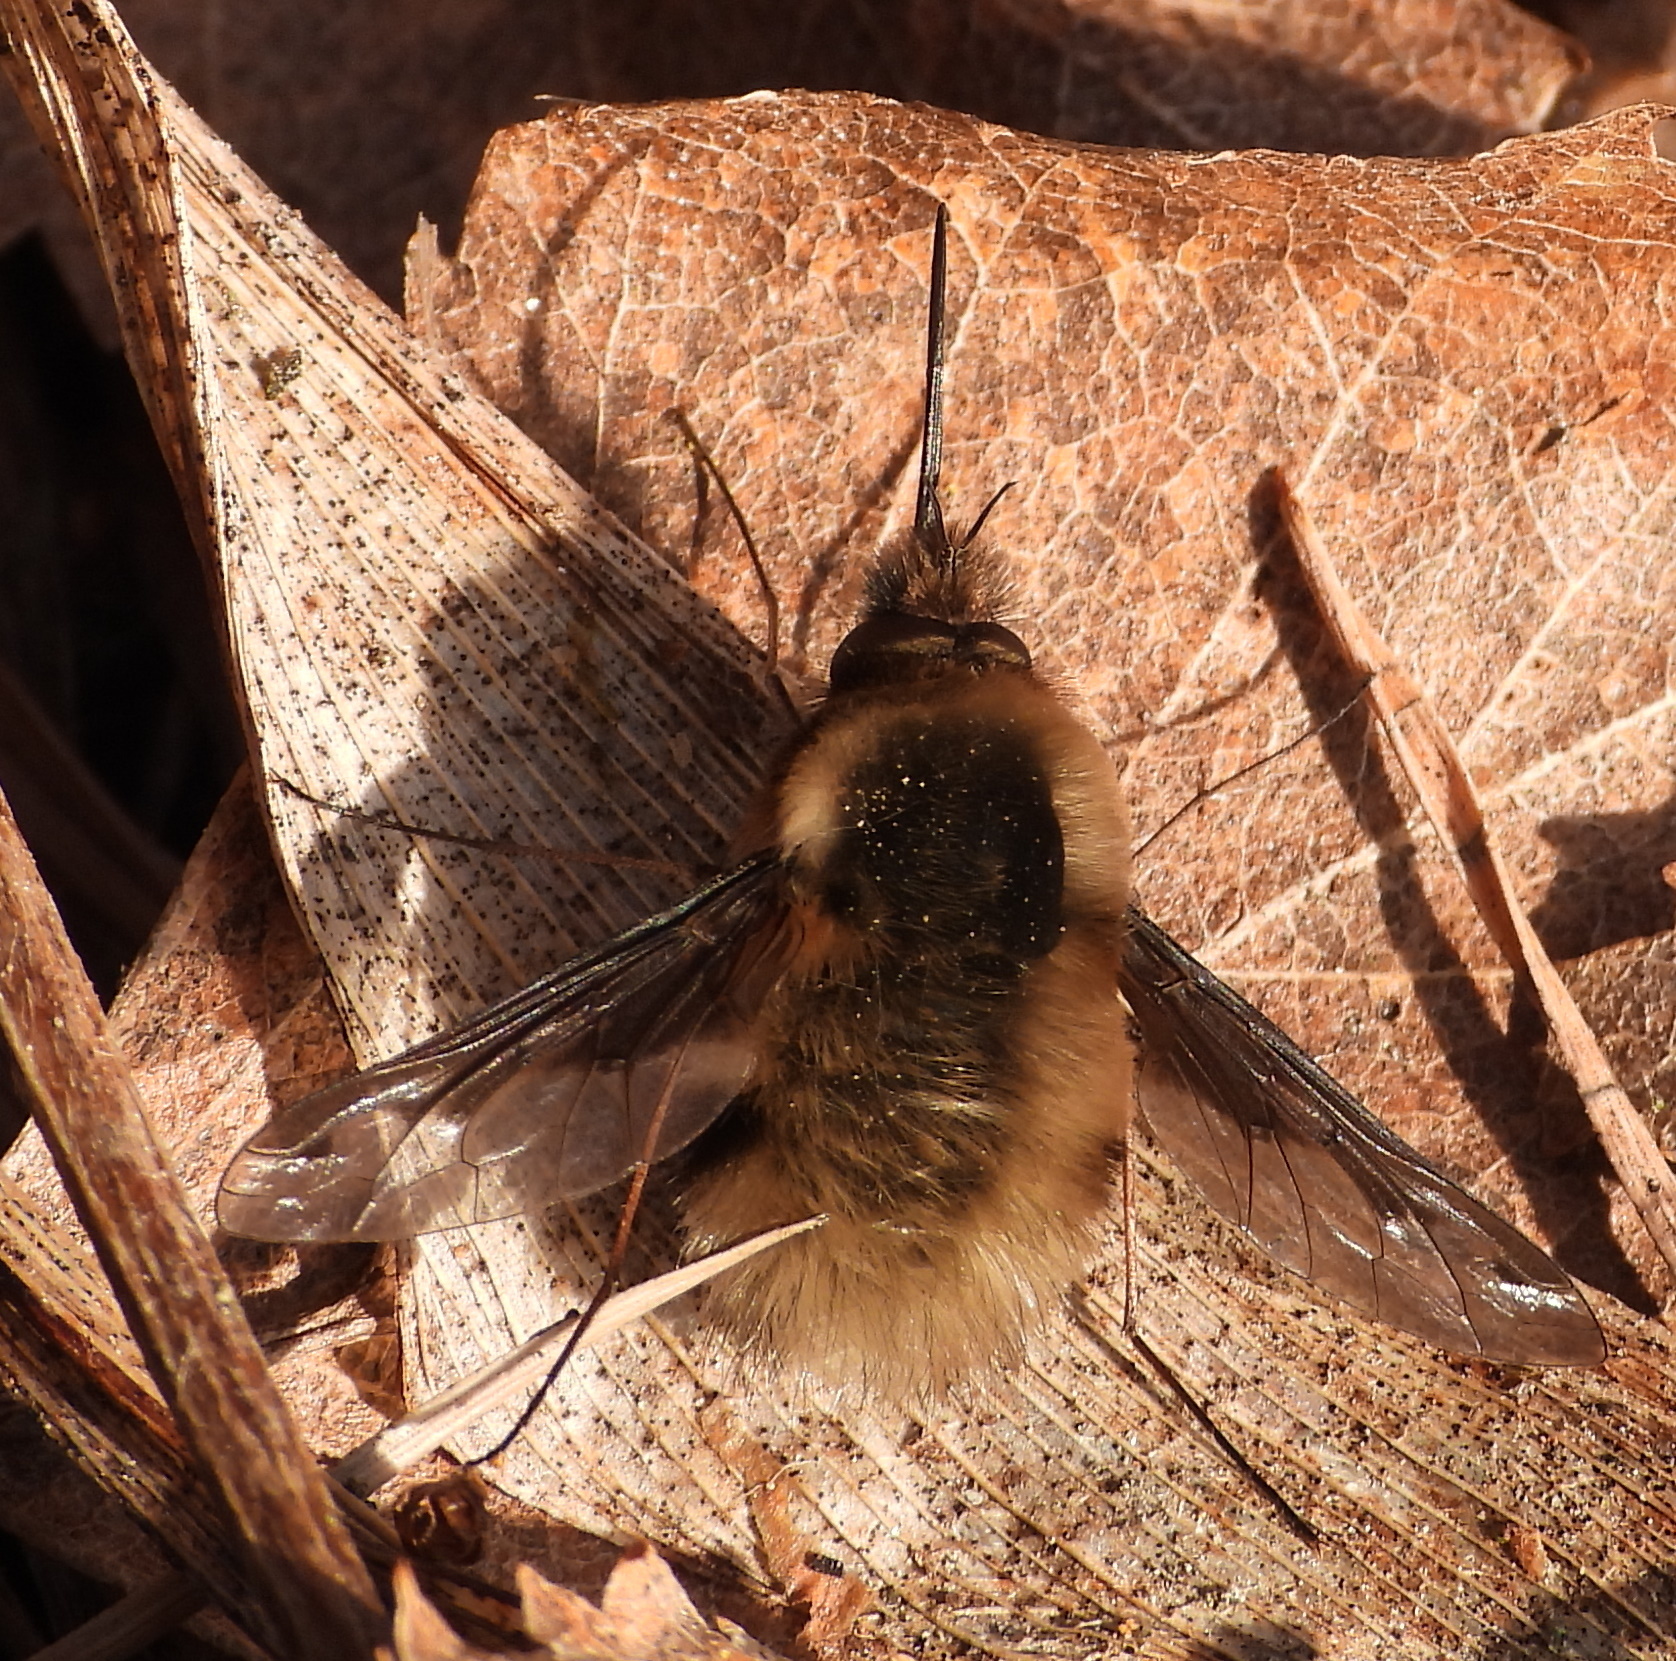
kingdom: Animalia
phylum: Arthropoda
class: Insecta
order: Diptera
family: Bombyliidae
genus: Bombylius
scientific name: Bombylius major
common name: Bee fly
